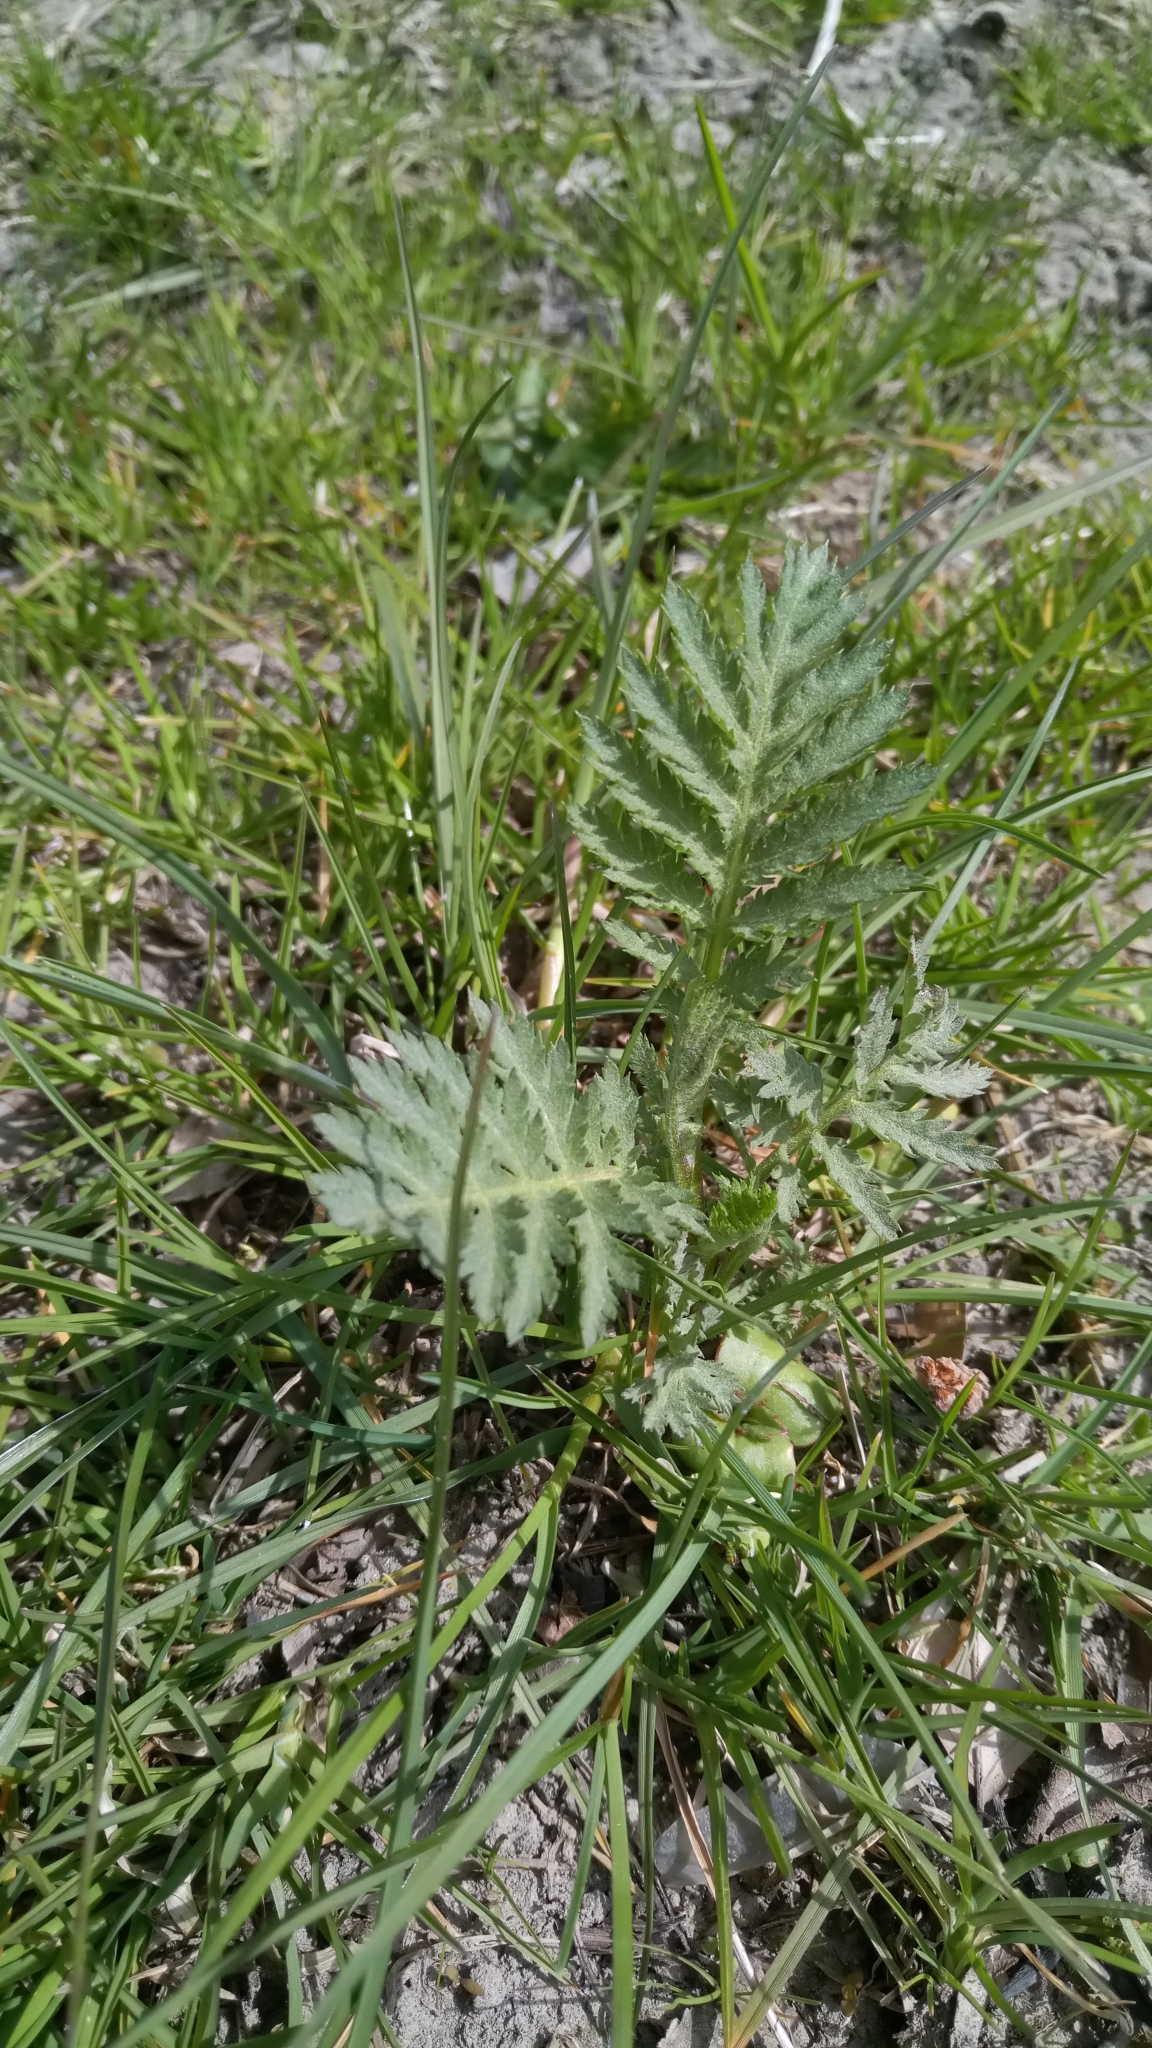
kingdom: Plantae
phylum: Tracheophyta
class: Magnoliopsida
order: Asterales
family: Asteraceae
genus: Tanacetum
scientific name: Tanacetum vulgare
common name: Common tansy
